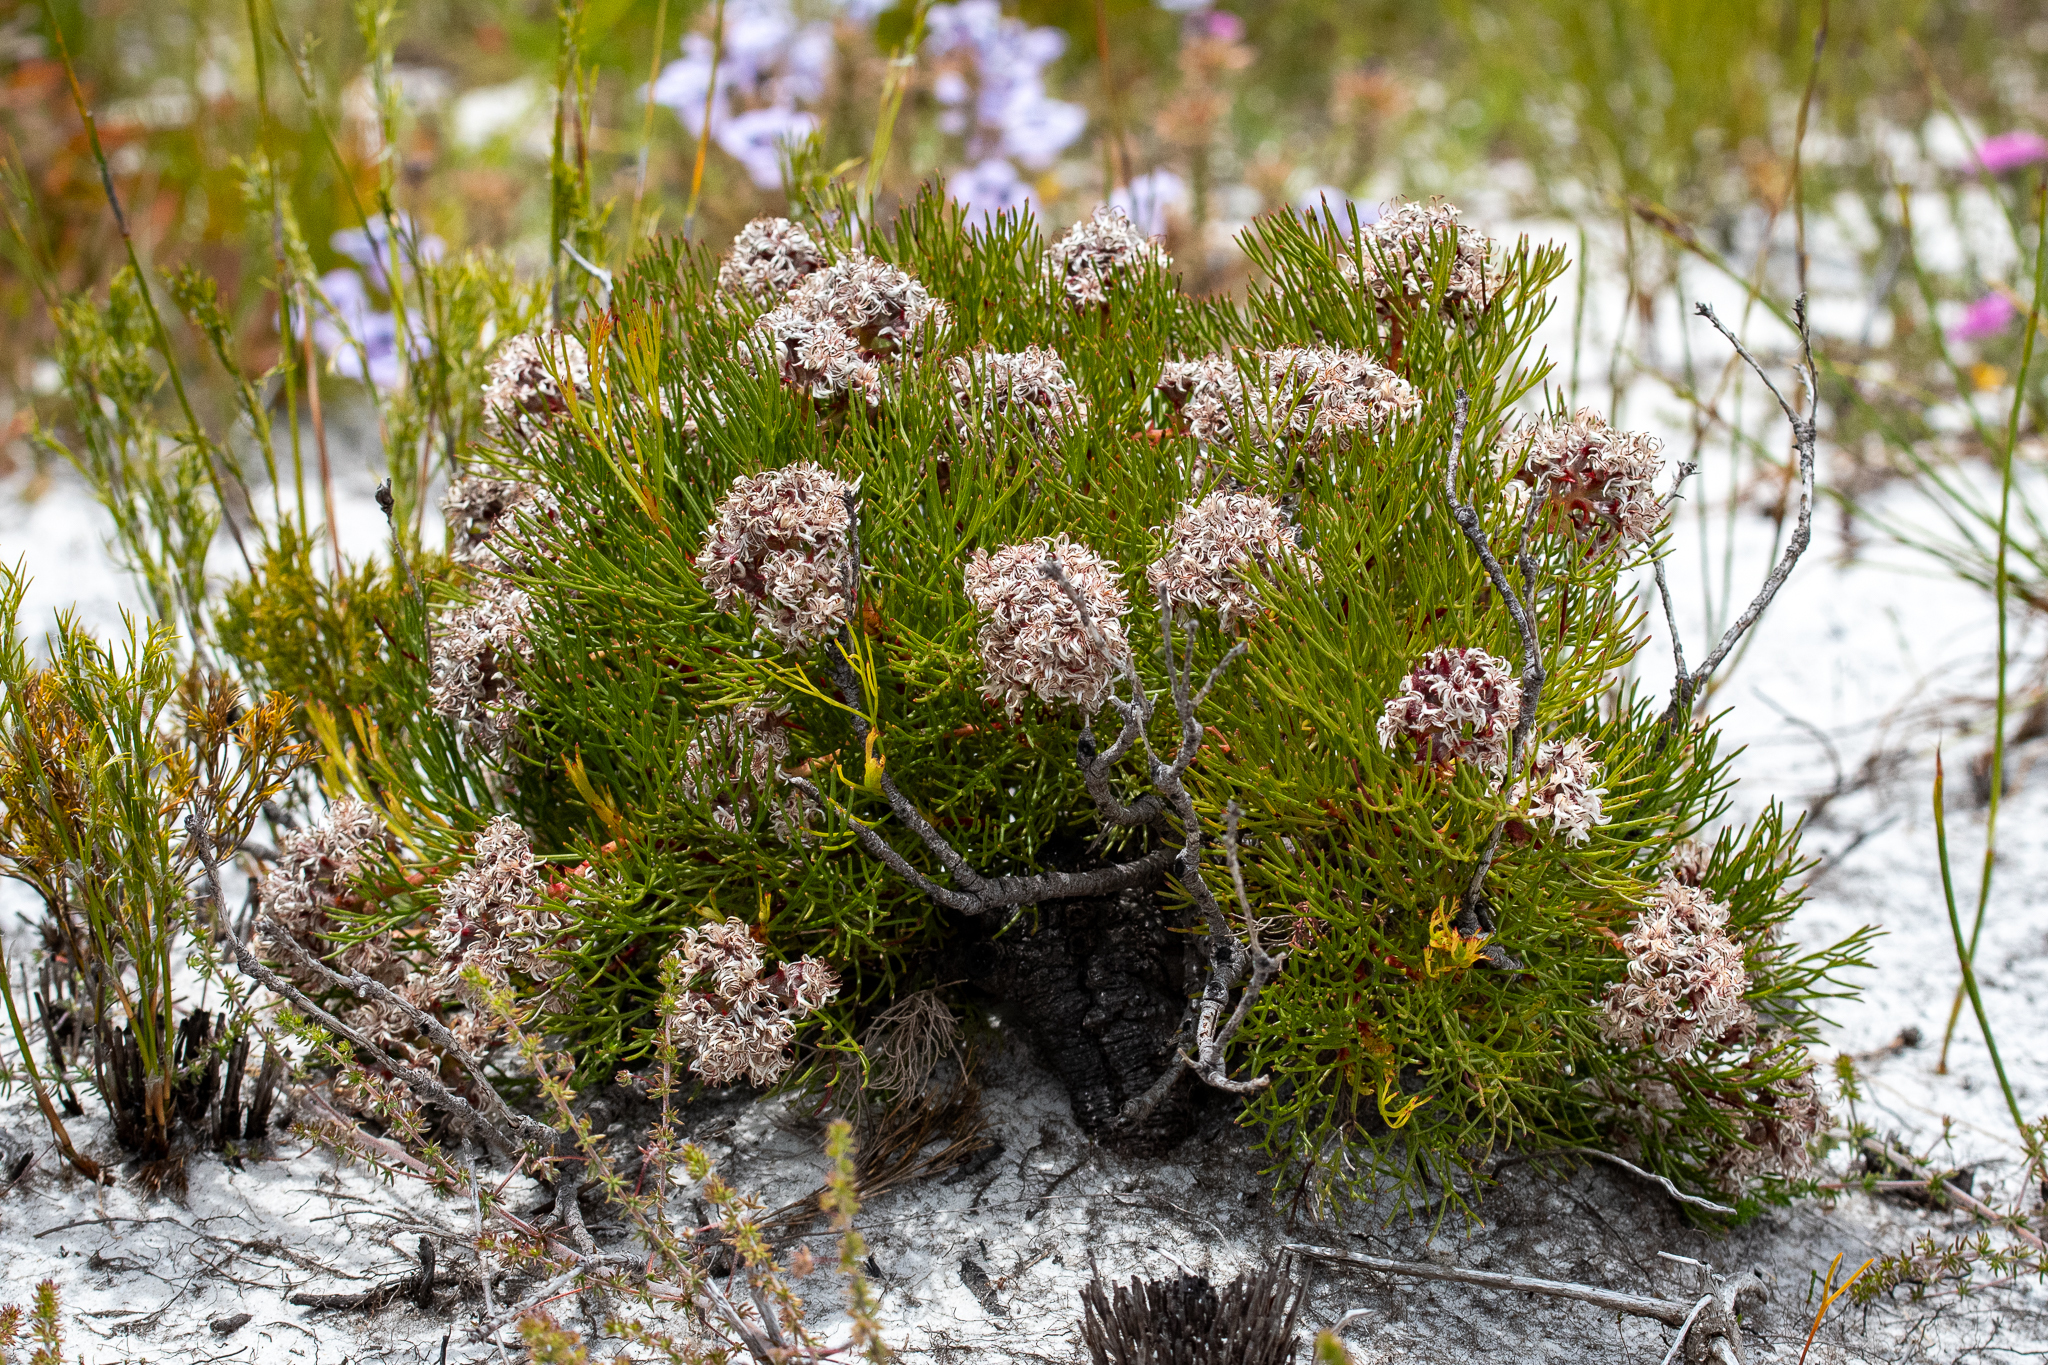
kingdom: Plantae
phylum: Tracheophyta
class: Magnoliopsida
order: Proteales
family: Proteaceae
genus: Serruria
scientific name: Serruria rubricaulis
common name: Red-stem spiderhead
